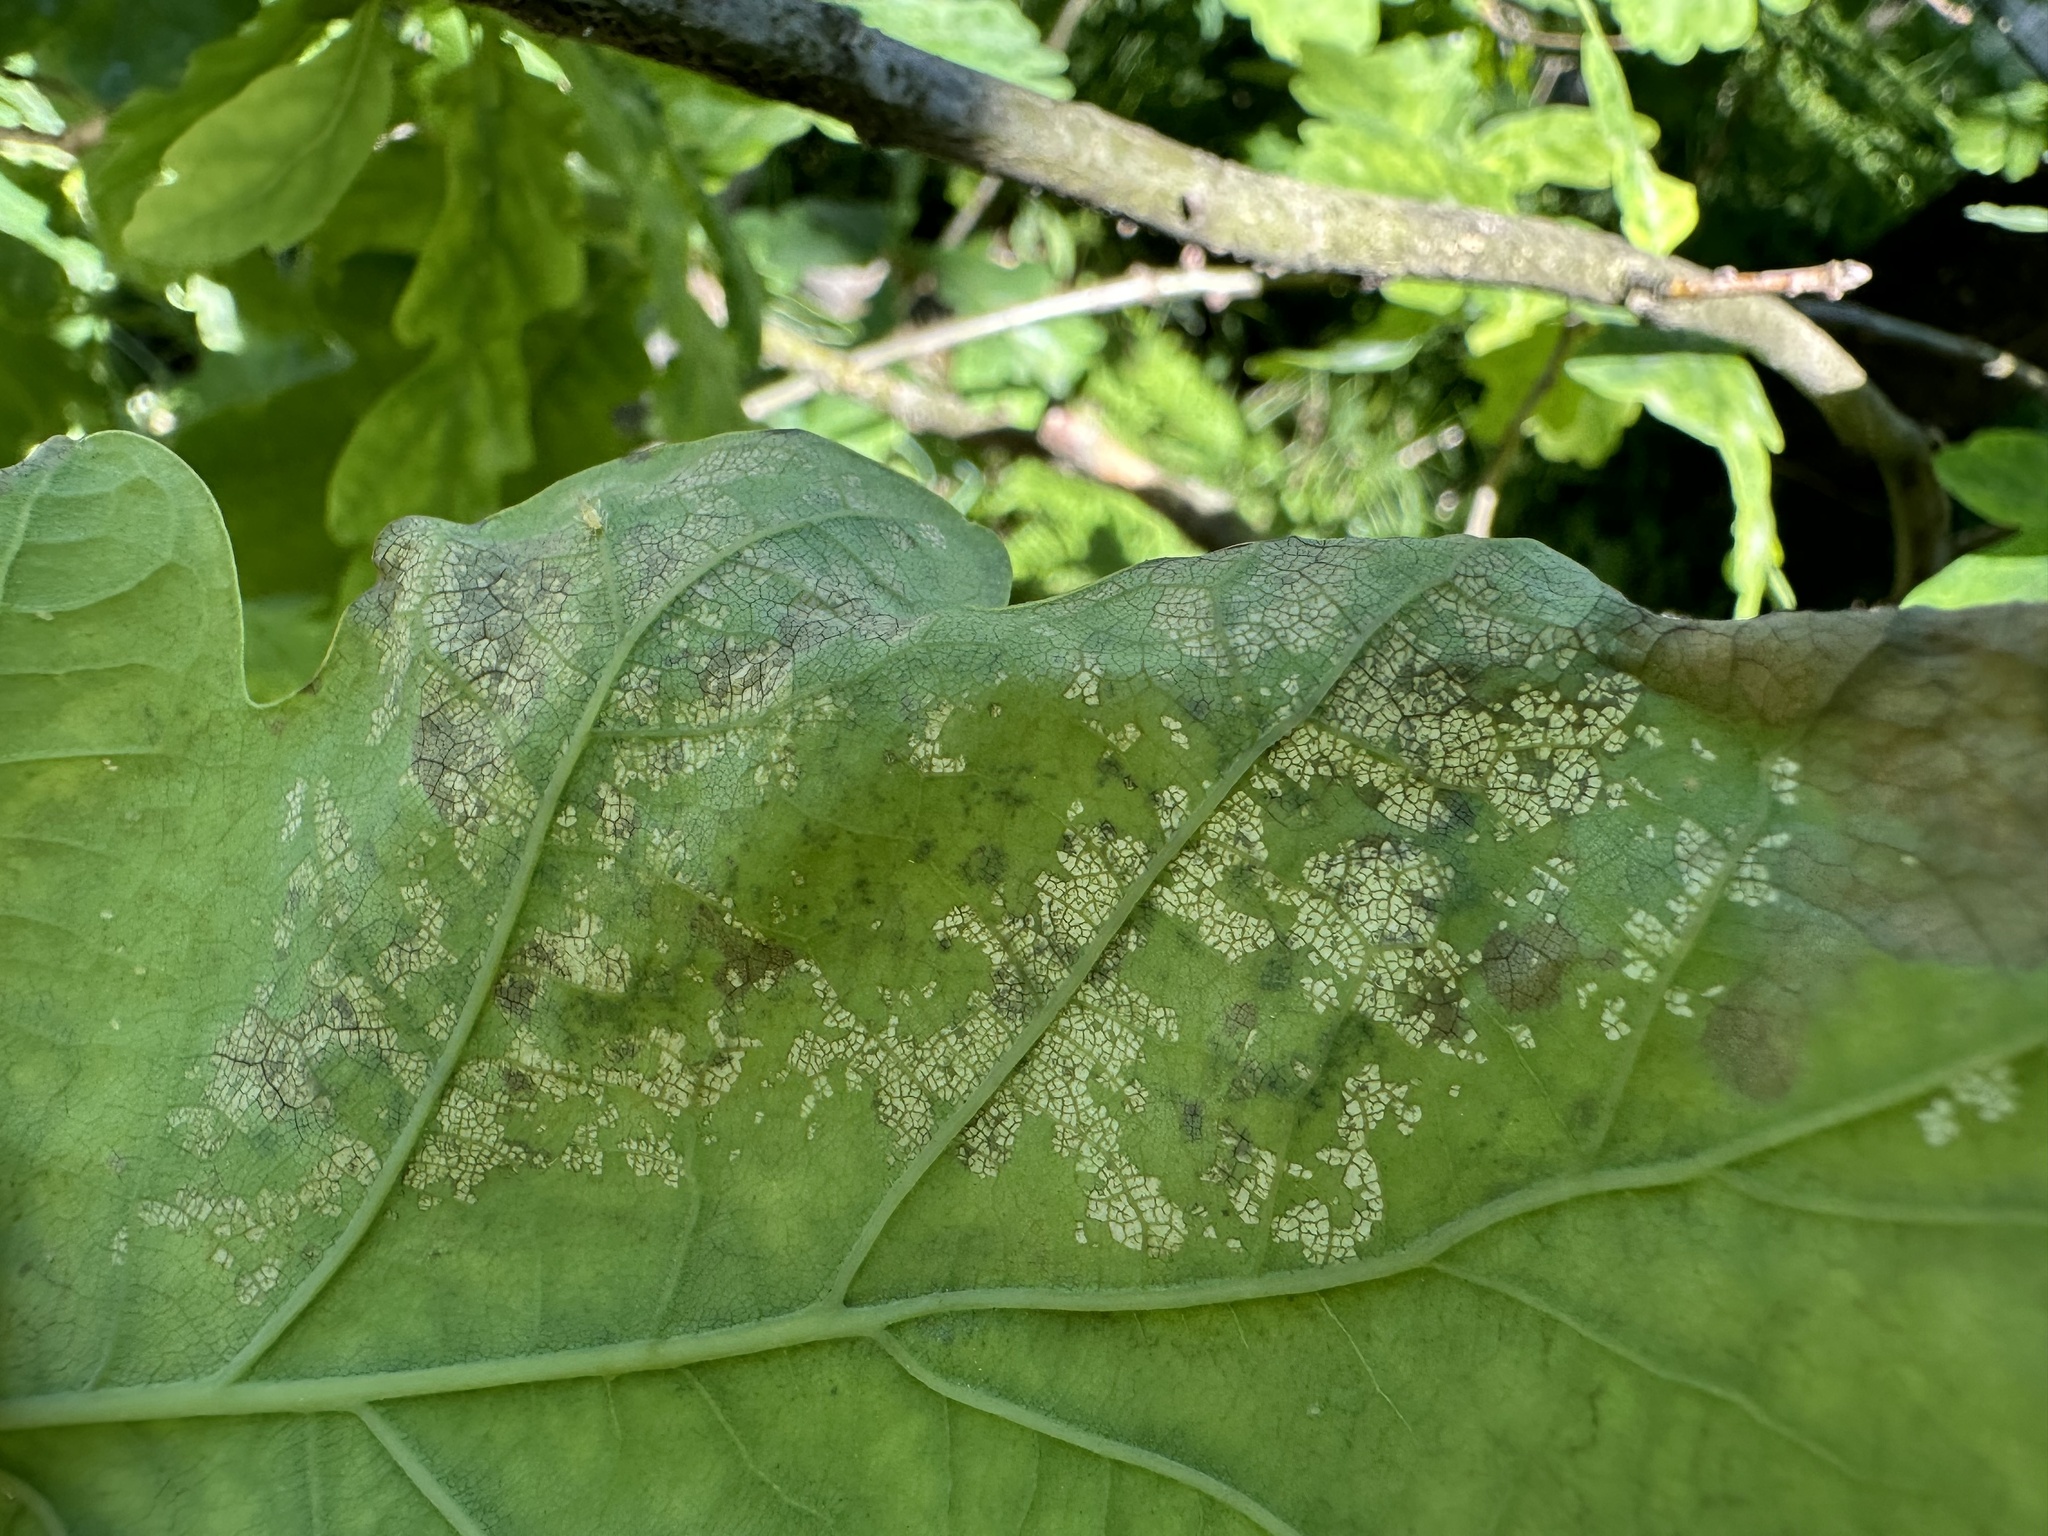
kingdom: Animalia
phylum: Arthropoda
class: Insecta
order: Lepidoptera
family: Gracillariidae
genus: Acrocercops
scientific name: Acrocercops brongniardella
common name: Brown oak slender
